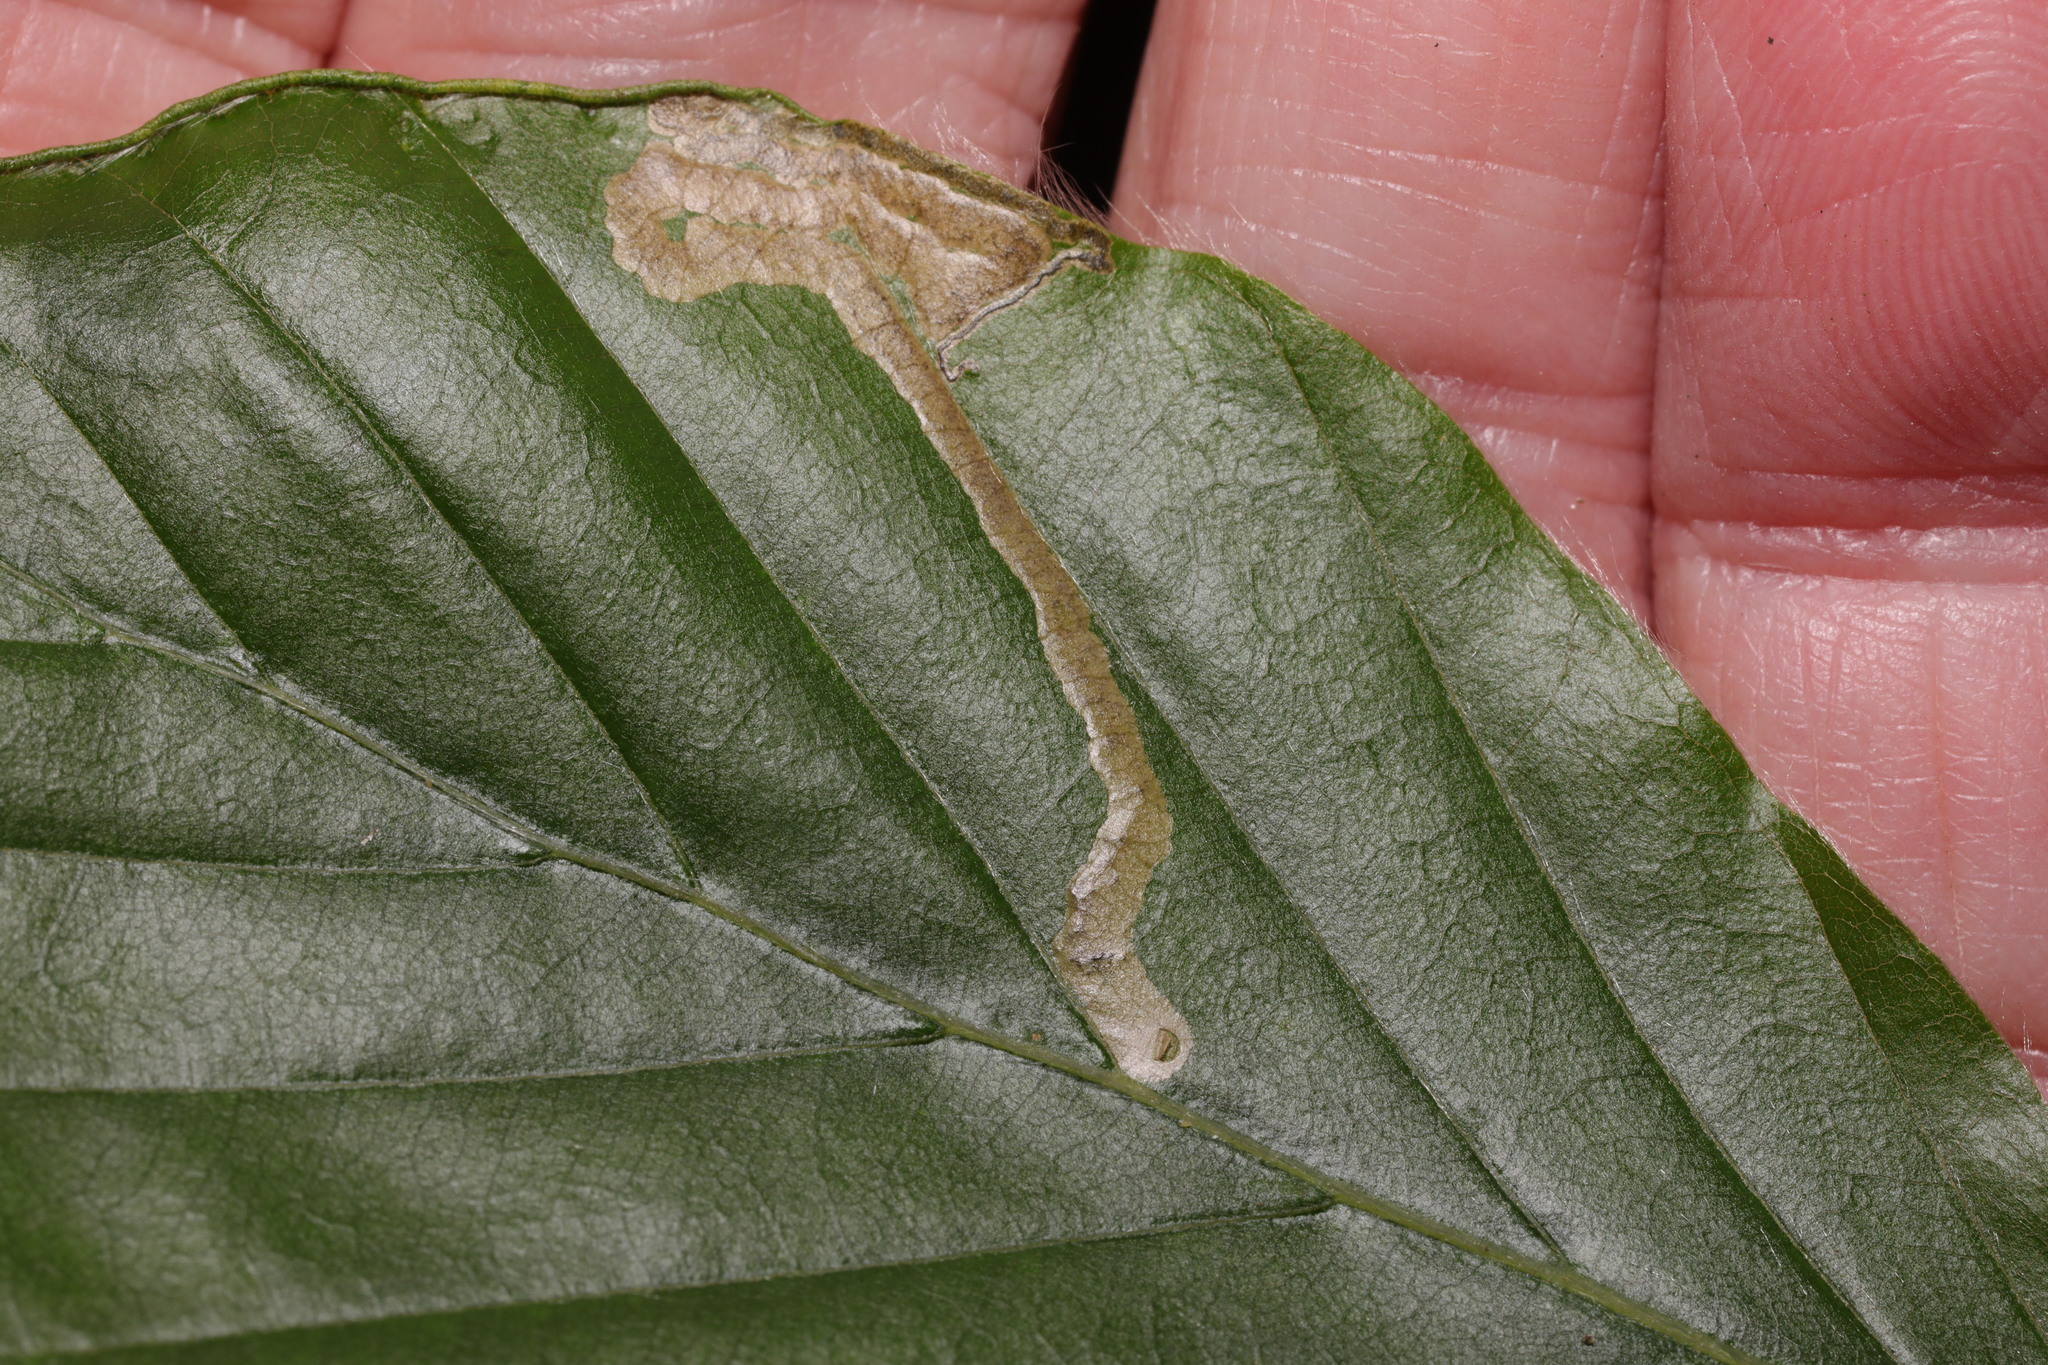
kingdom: Animalia
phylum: Arthropoda
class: Insecta
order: Lepidoptera
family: Nepticulidae
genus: Stigmella
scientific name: Stigmella hemargyrella
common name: Beech pigmy
